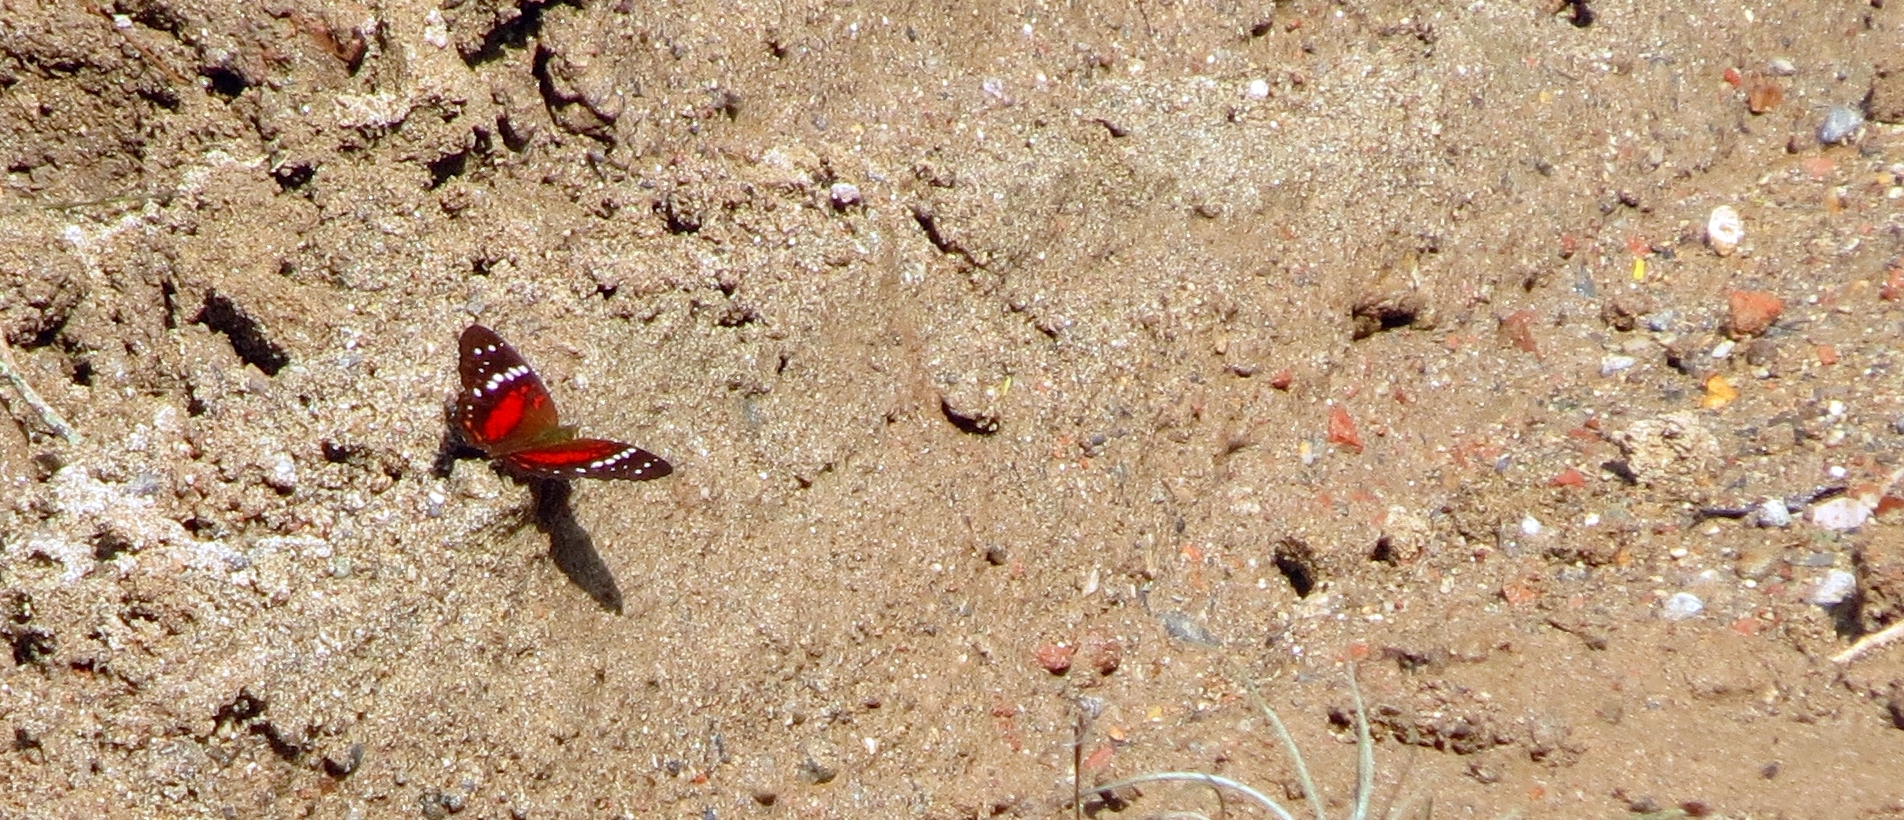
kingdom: Animalia
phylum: Arthropoda
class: Insecta
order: Lepidoptera
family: Nymphalidae
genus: Anartia
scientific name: Anartia amathea
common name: Red peacock
